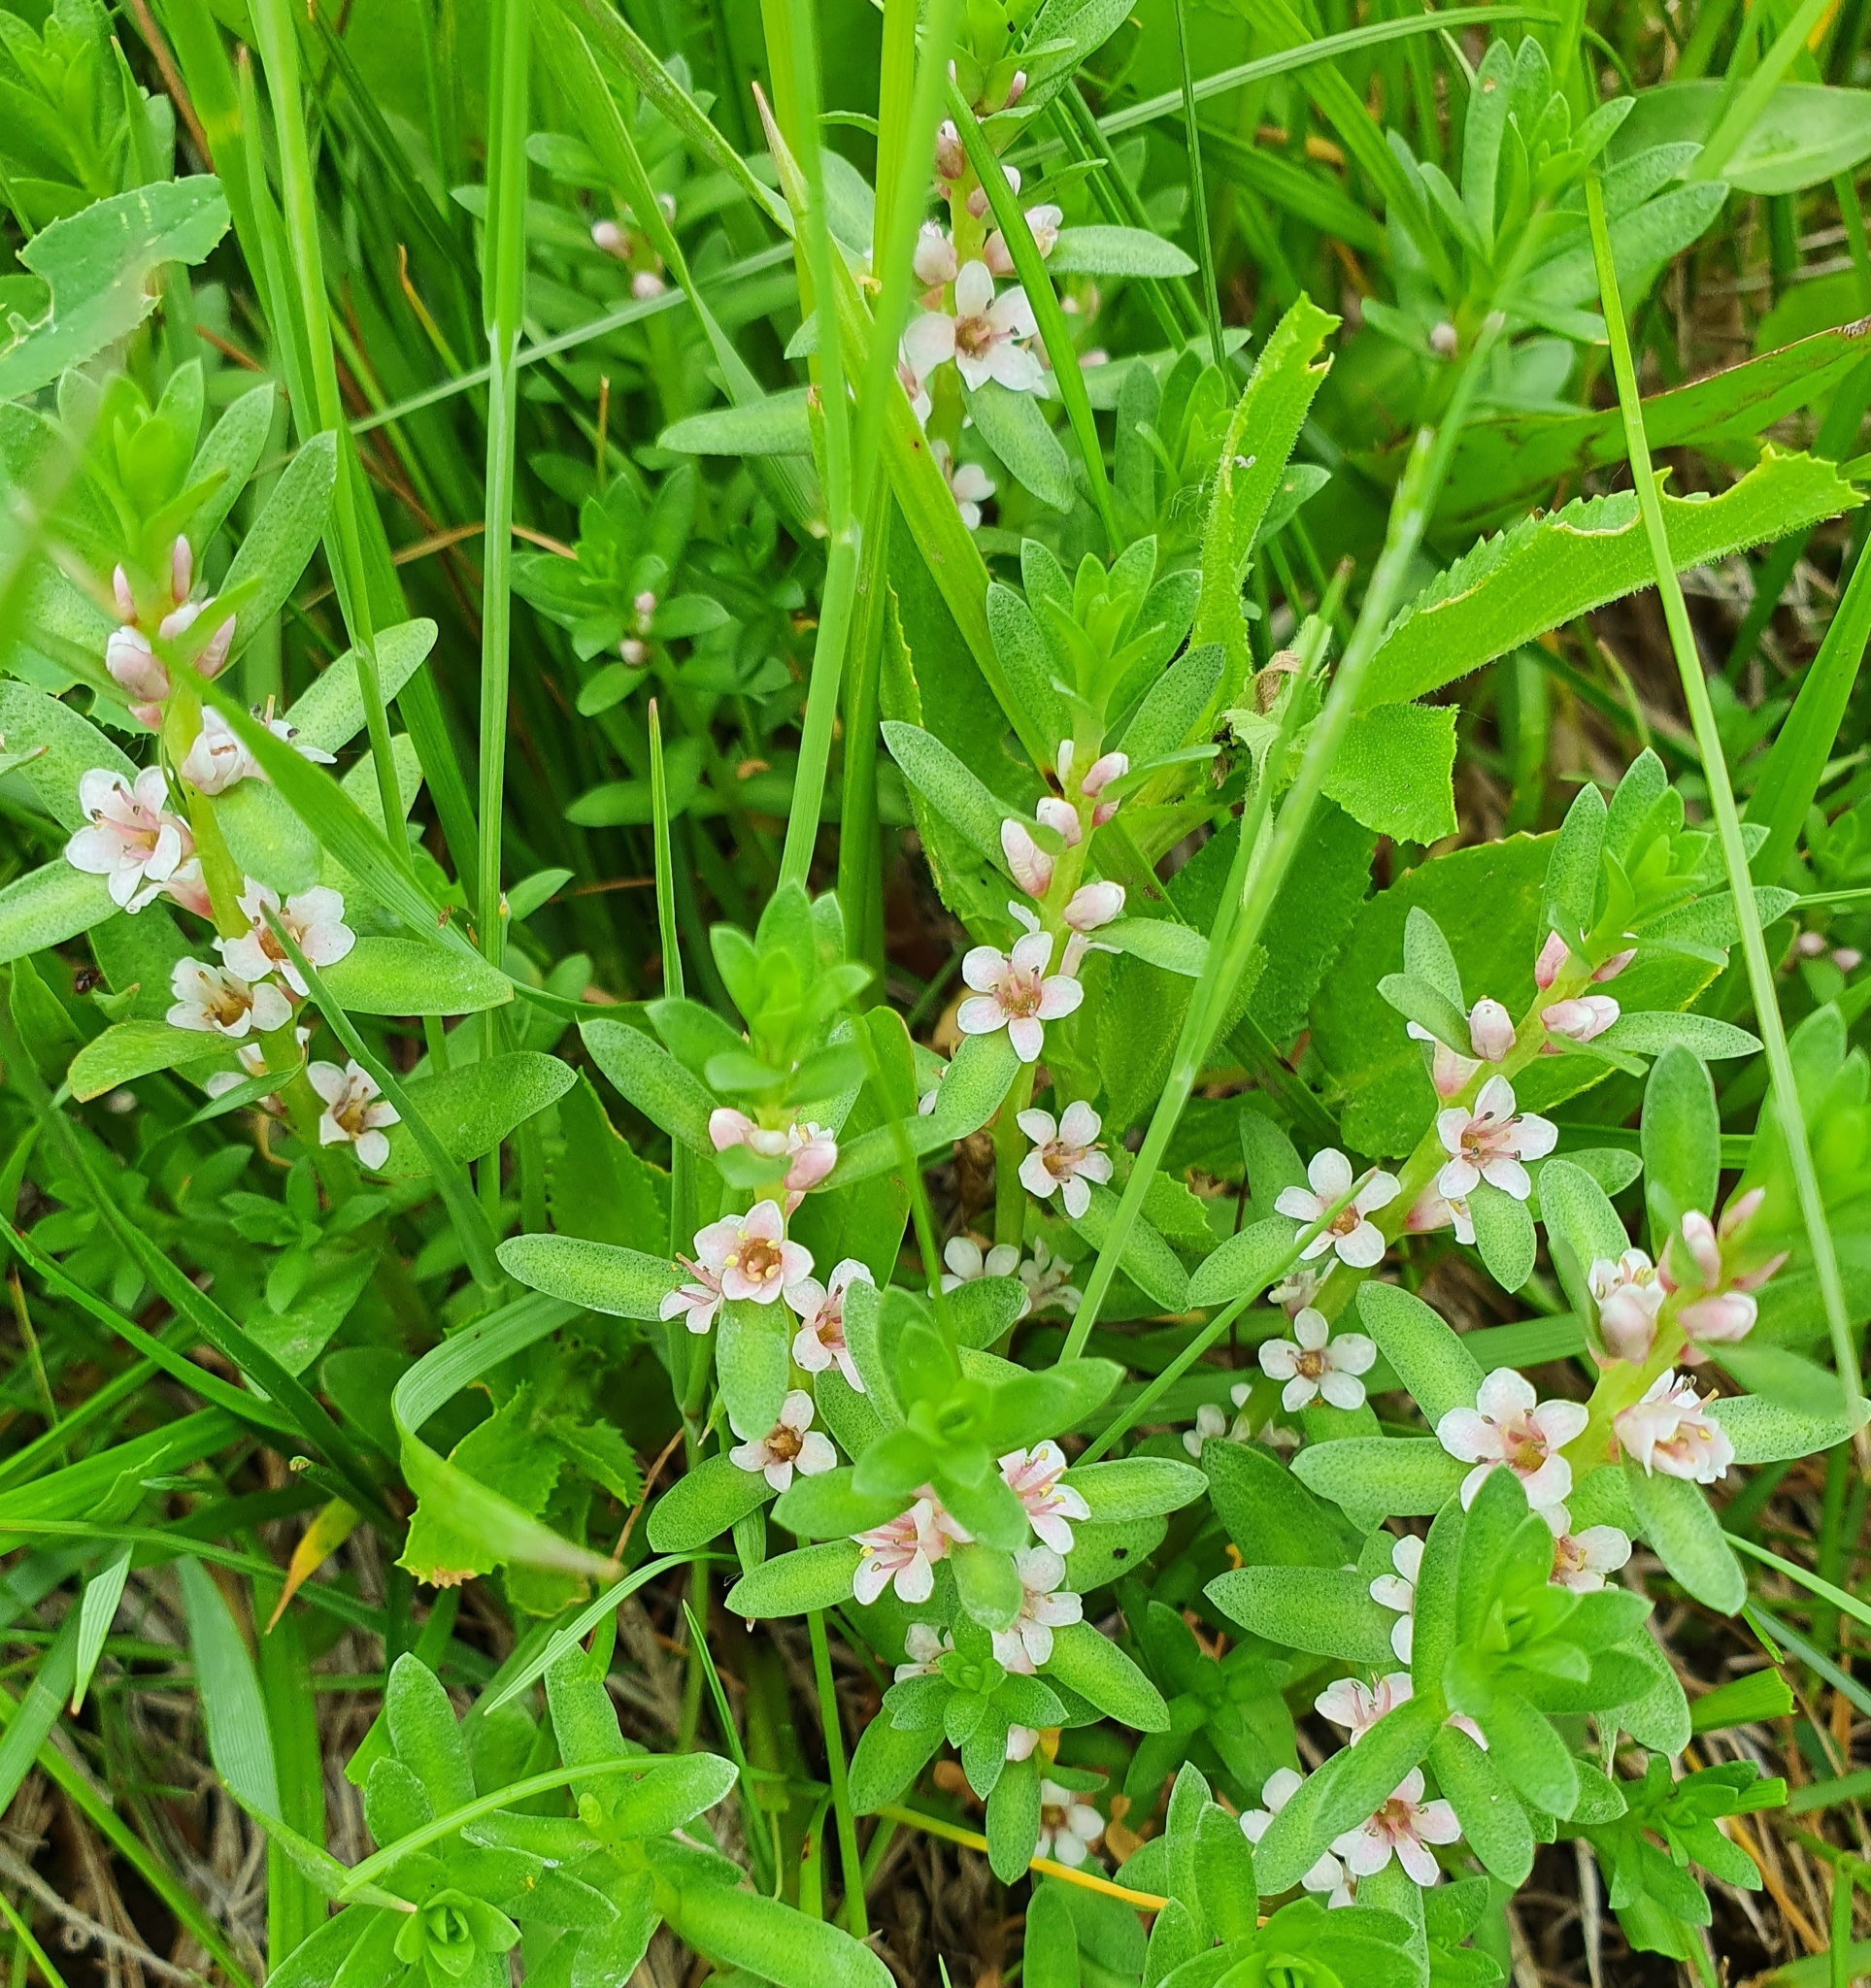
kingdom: Plantae
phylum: Tracheophyta
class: Magnoliopsida
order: Ericales
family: Primulaceae
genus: Lysimachia
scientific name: Lysimachia maritima
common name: Sea milkwort
